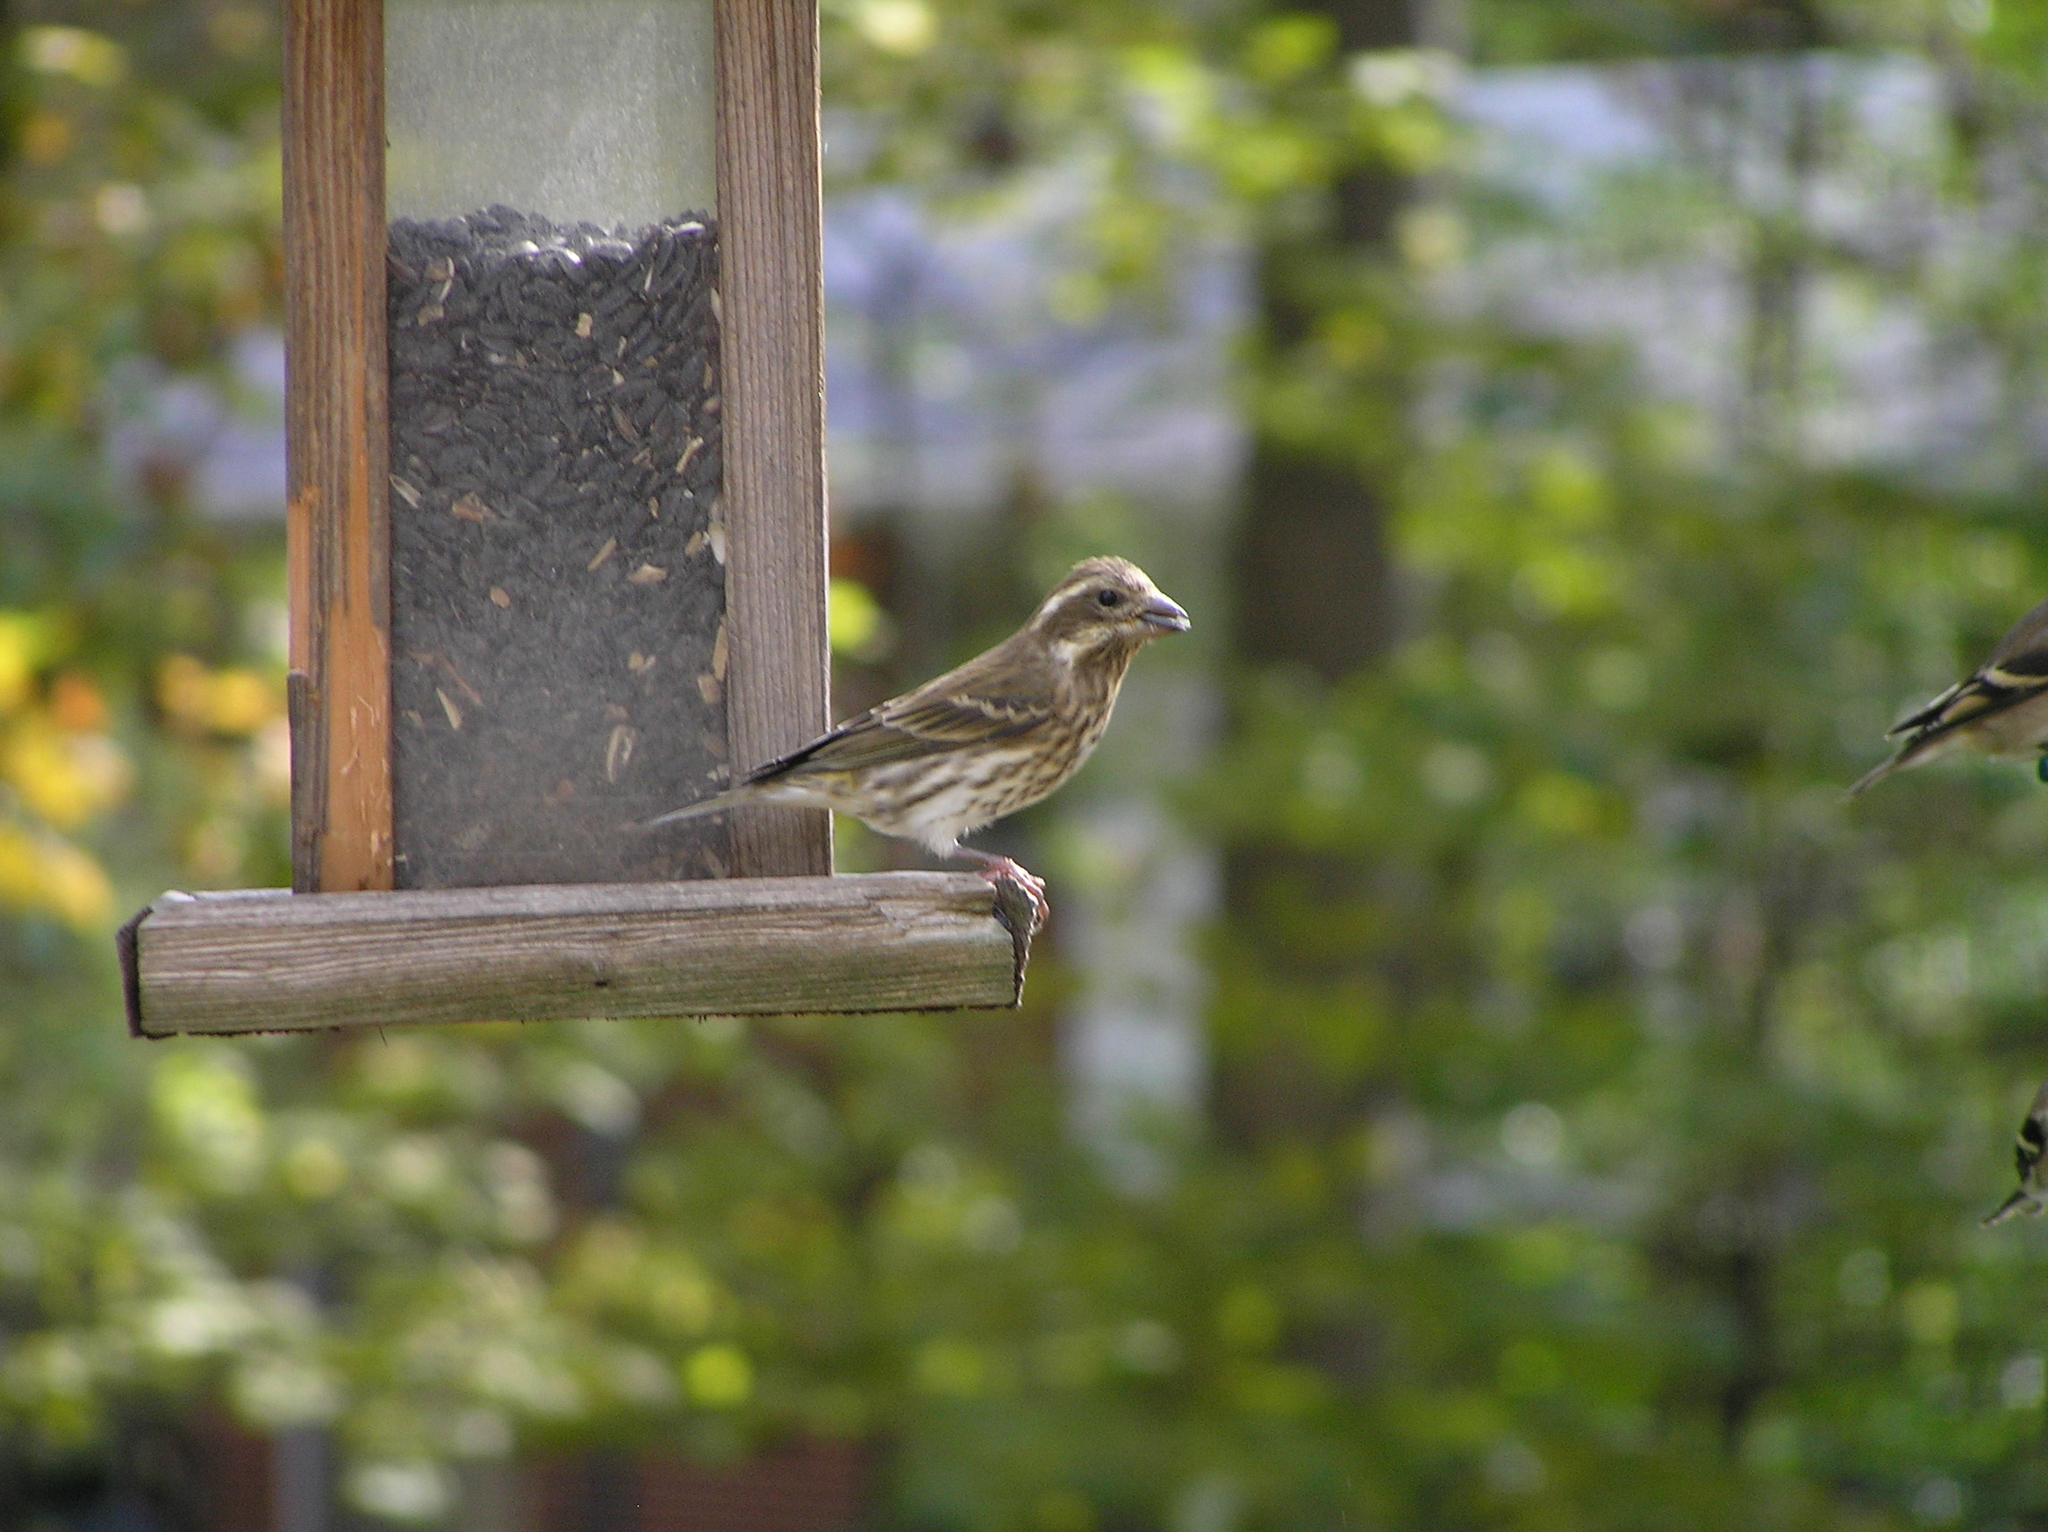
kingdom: Animalia
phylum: Chordata
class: Aves
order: Passeriformes
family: Fringillidae
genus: Haemorhous
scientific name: Haemorhous purpureus
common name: Purple finch
